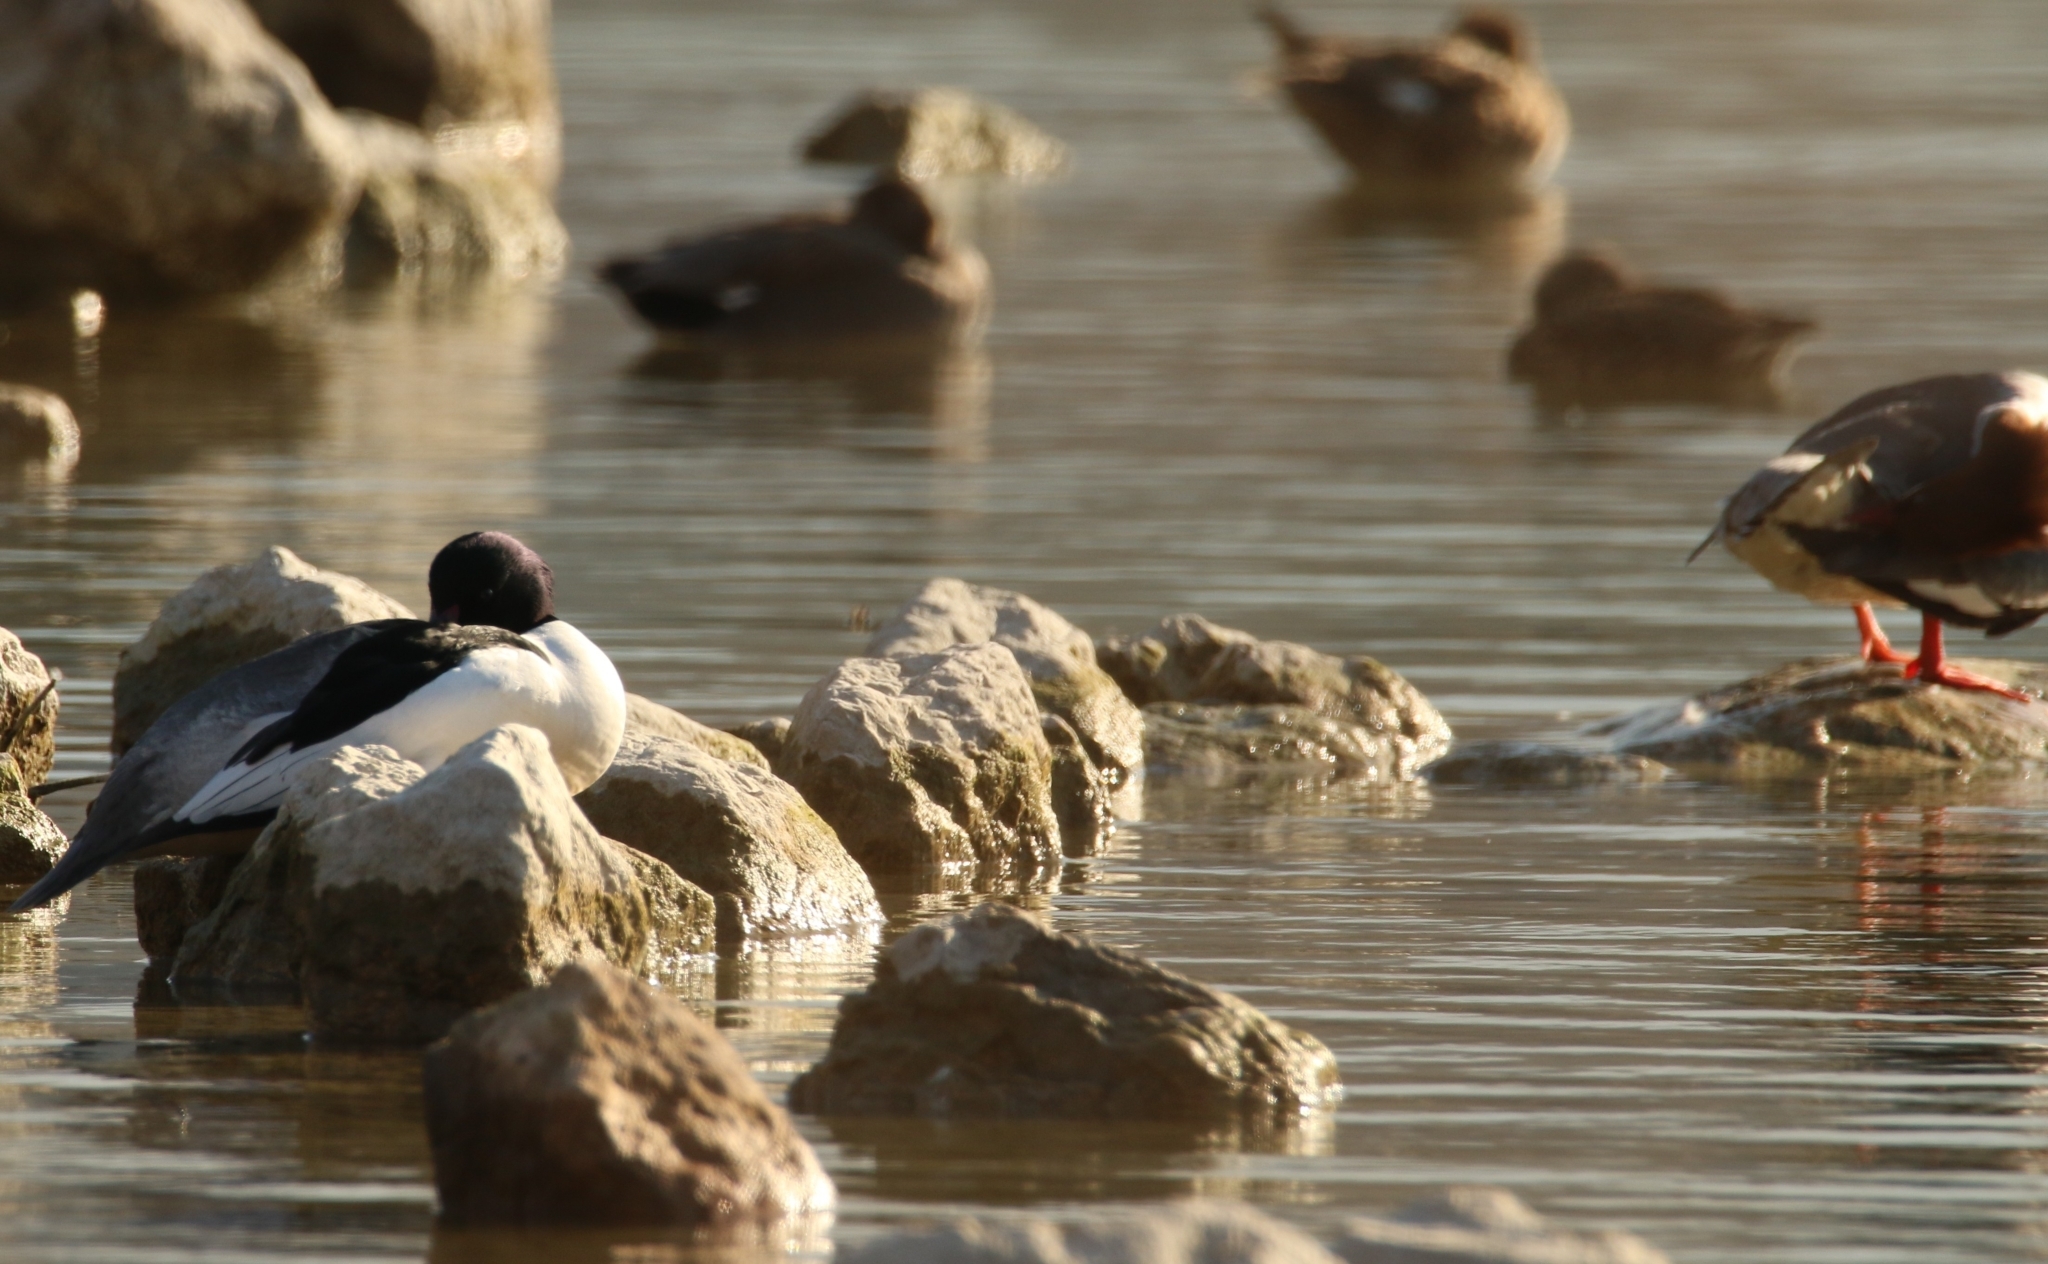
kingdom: Animalia
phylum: Chordata
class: Aves
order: Anseriformes
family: Anatidae
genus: Mergus
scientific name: Mergus merganser
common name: Common merganser
